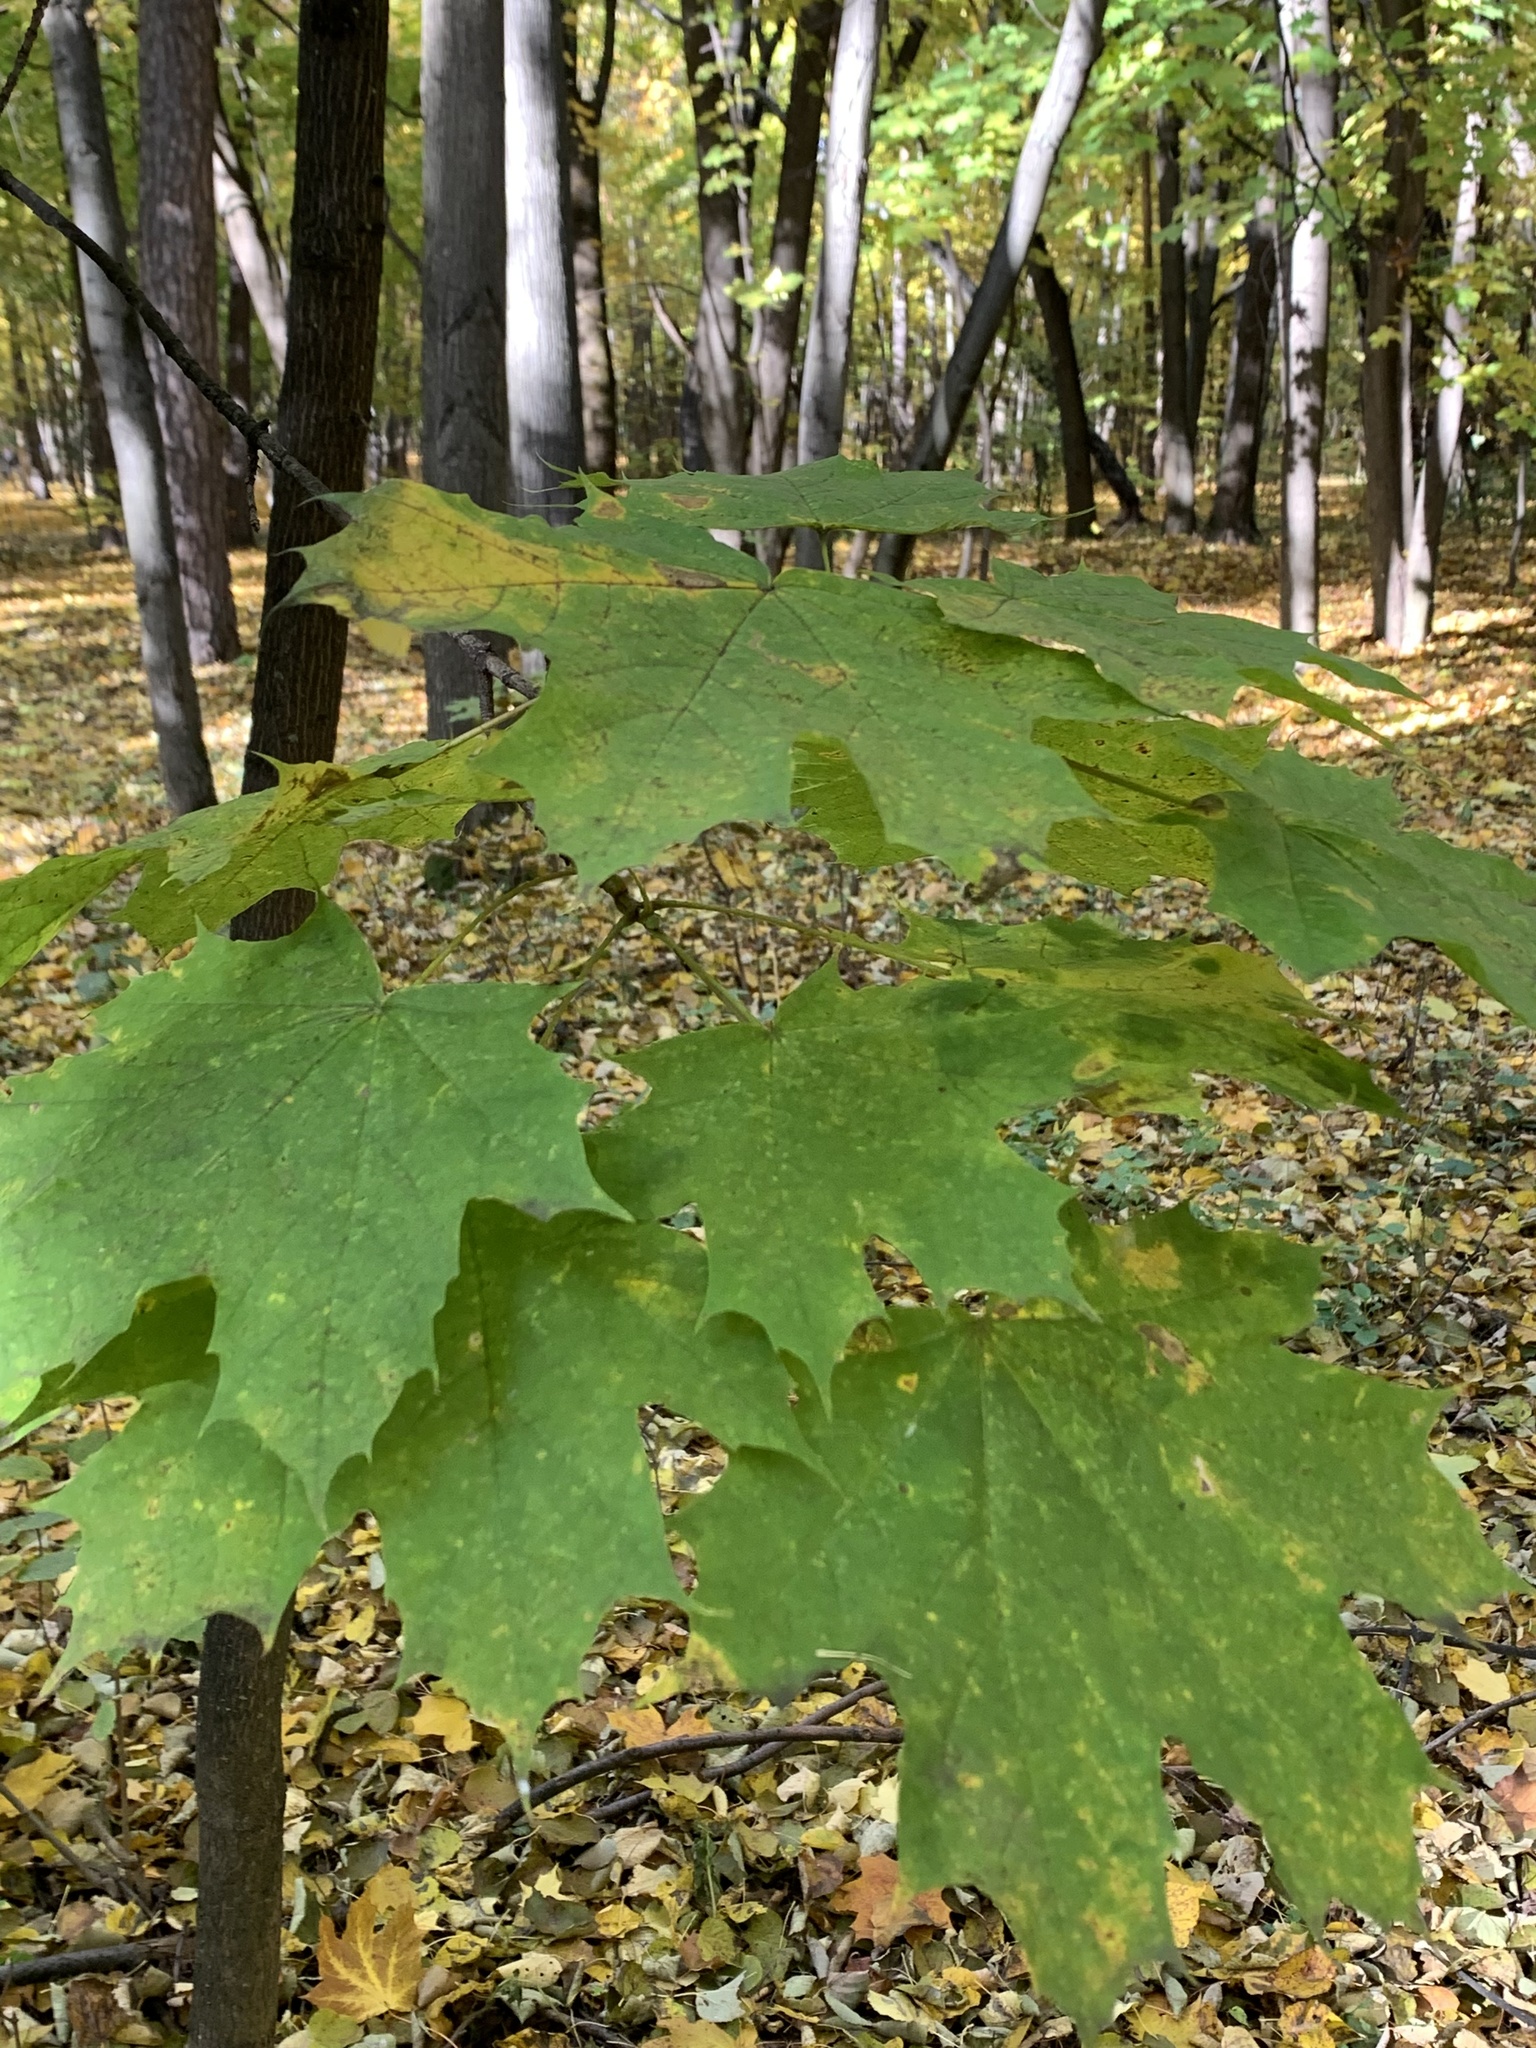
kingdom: Plantae
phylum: Tracheophyta
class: Magnoliopsida
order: Sapindales
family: Sapindaceae
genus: Acer
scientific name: Acer platanoides
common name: Norway maple
